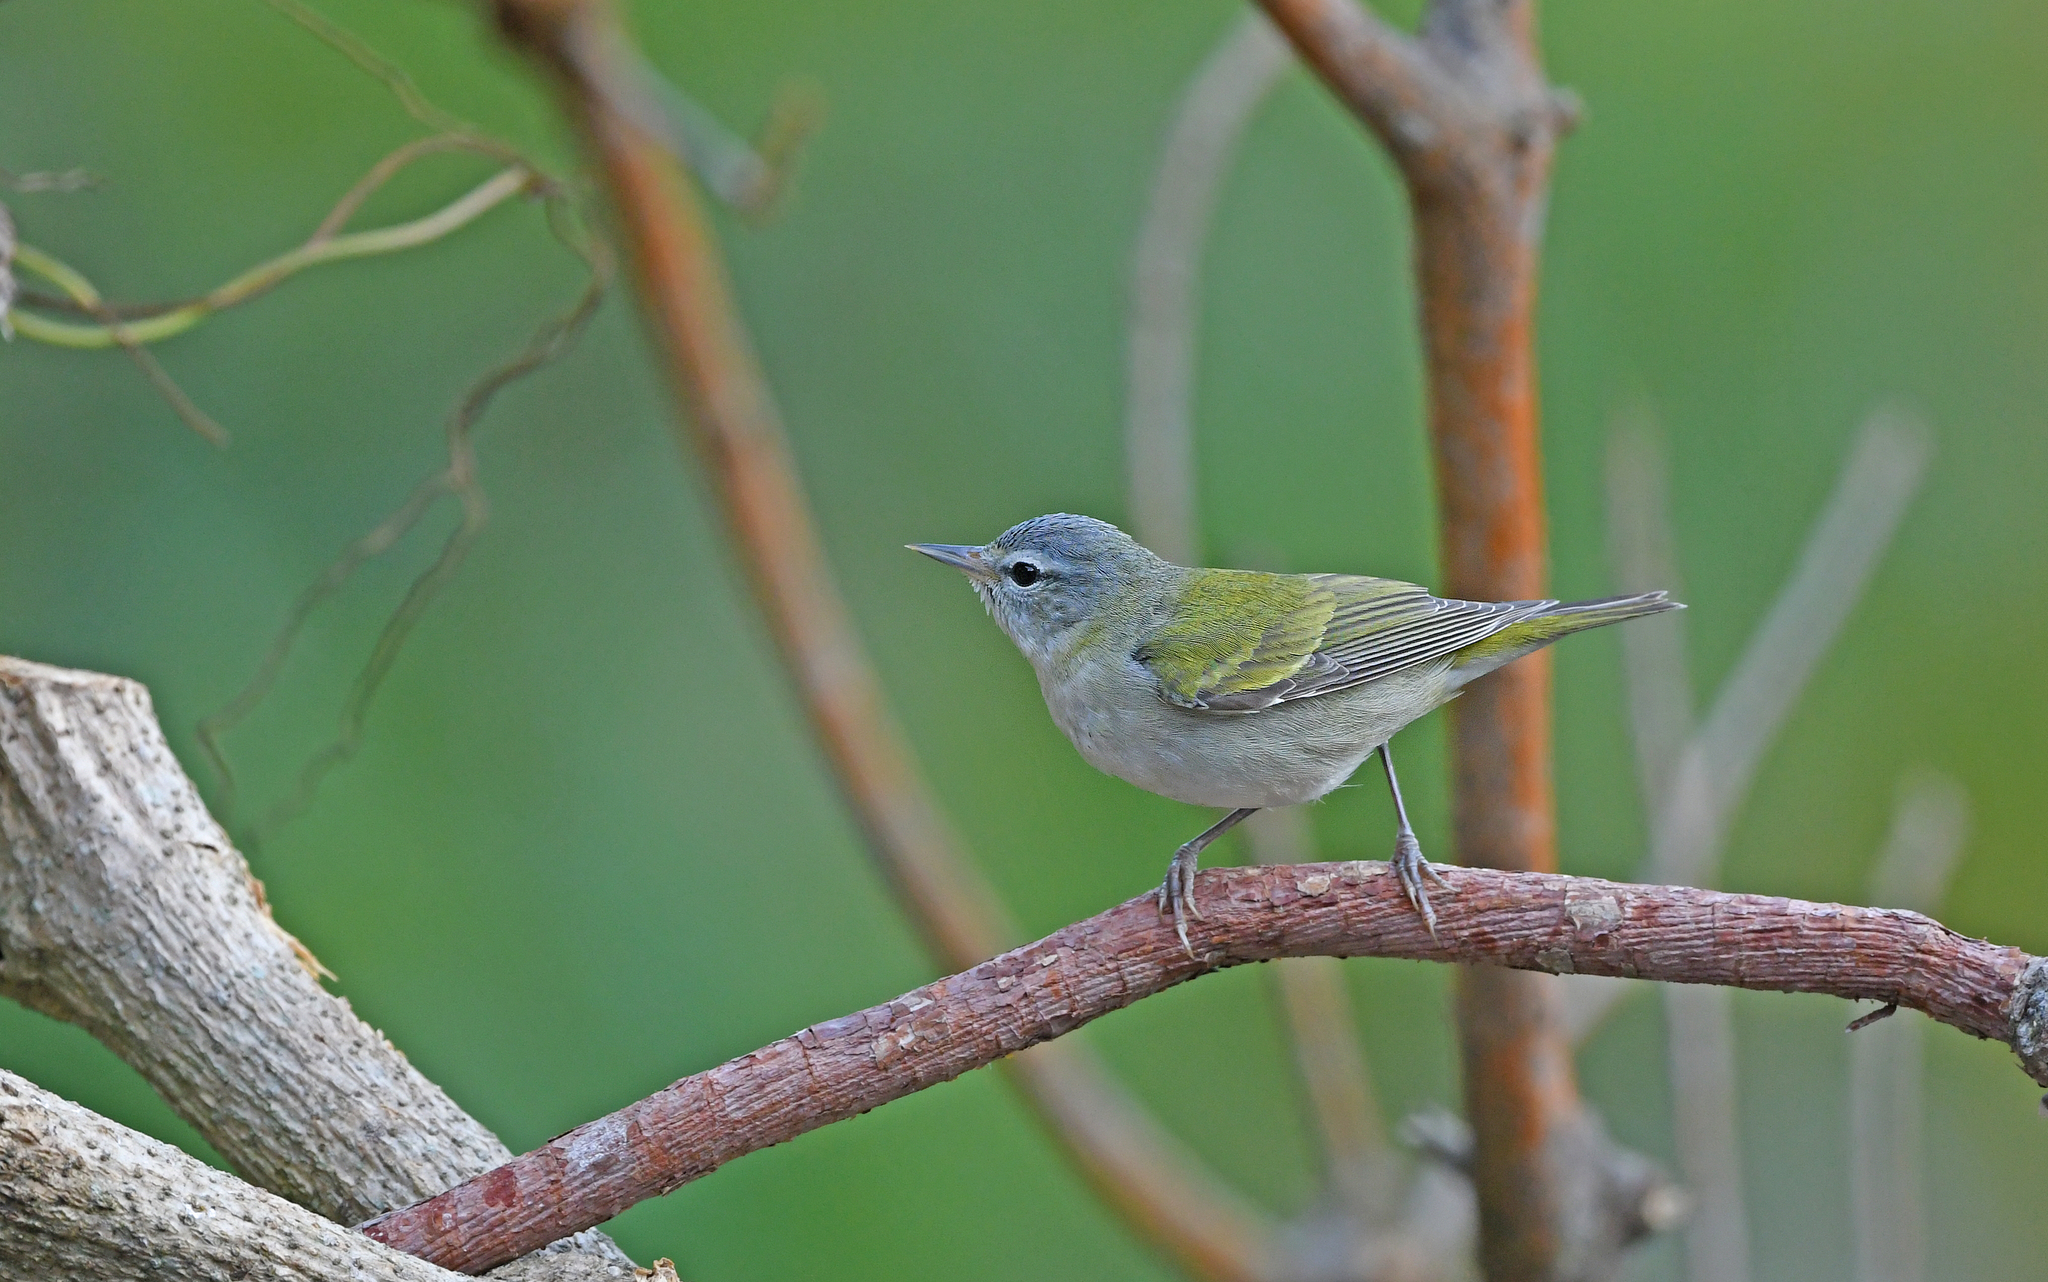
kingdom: Animalia
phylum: Chordata
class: Aves
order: Passeriformes
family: Parulidae
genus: Leiothlypis
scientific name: Leiothlypis peregrina
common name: Tennessee warbler
